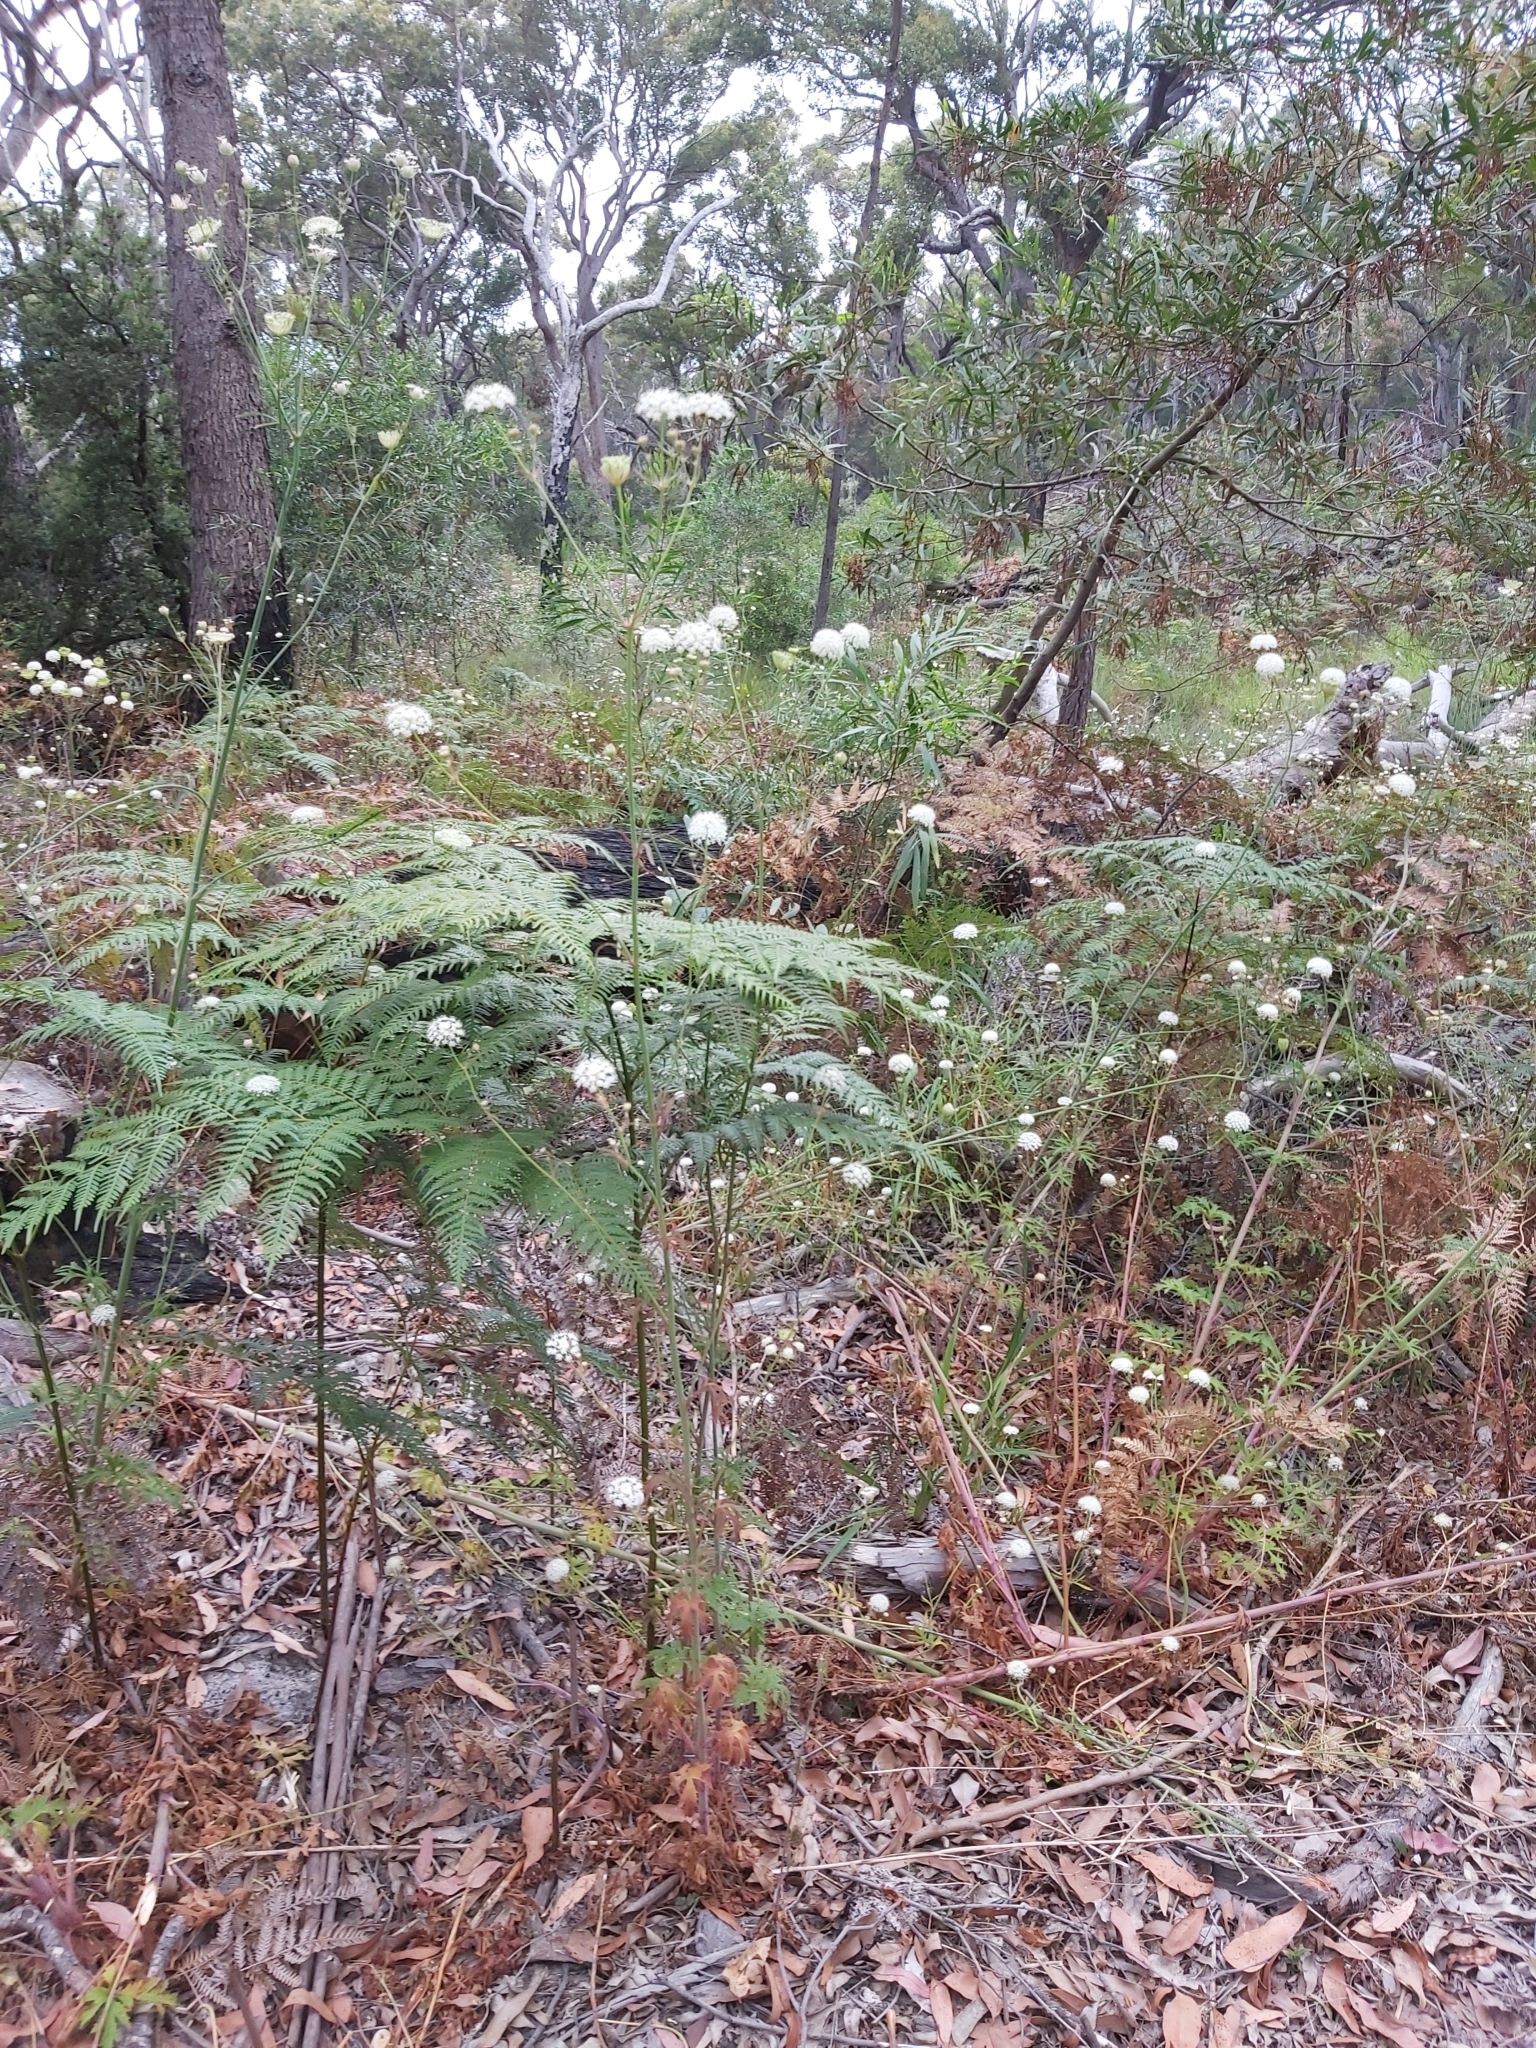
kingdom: Plantae
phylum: Tracheophyta
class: Magnoliopsida
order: Apiales
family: Araliaceae
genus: Trachymene
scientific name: Trachymene composita
